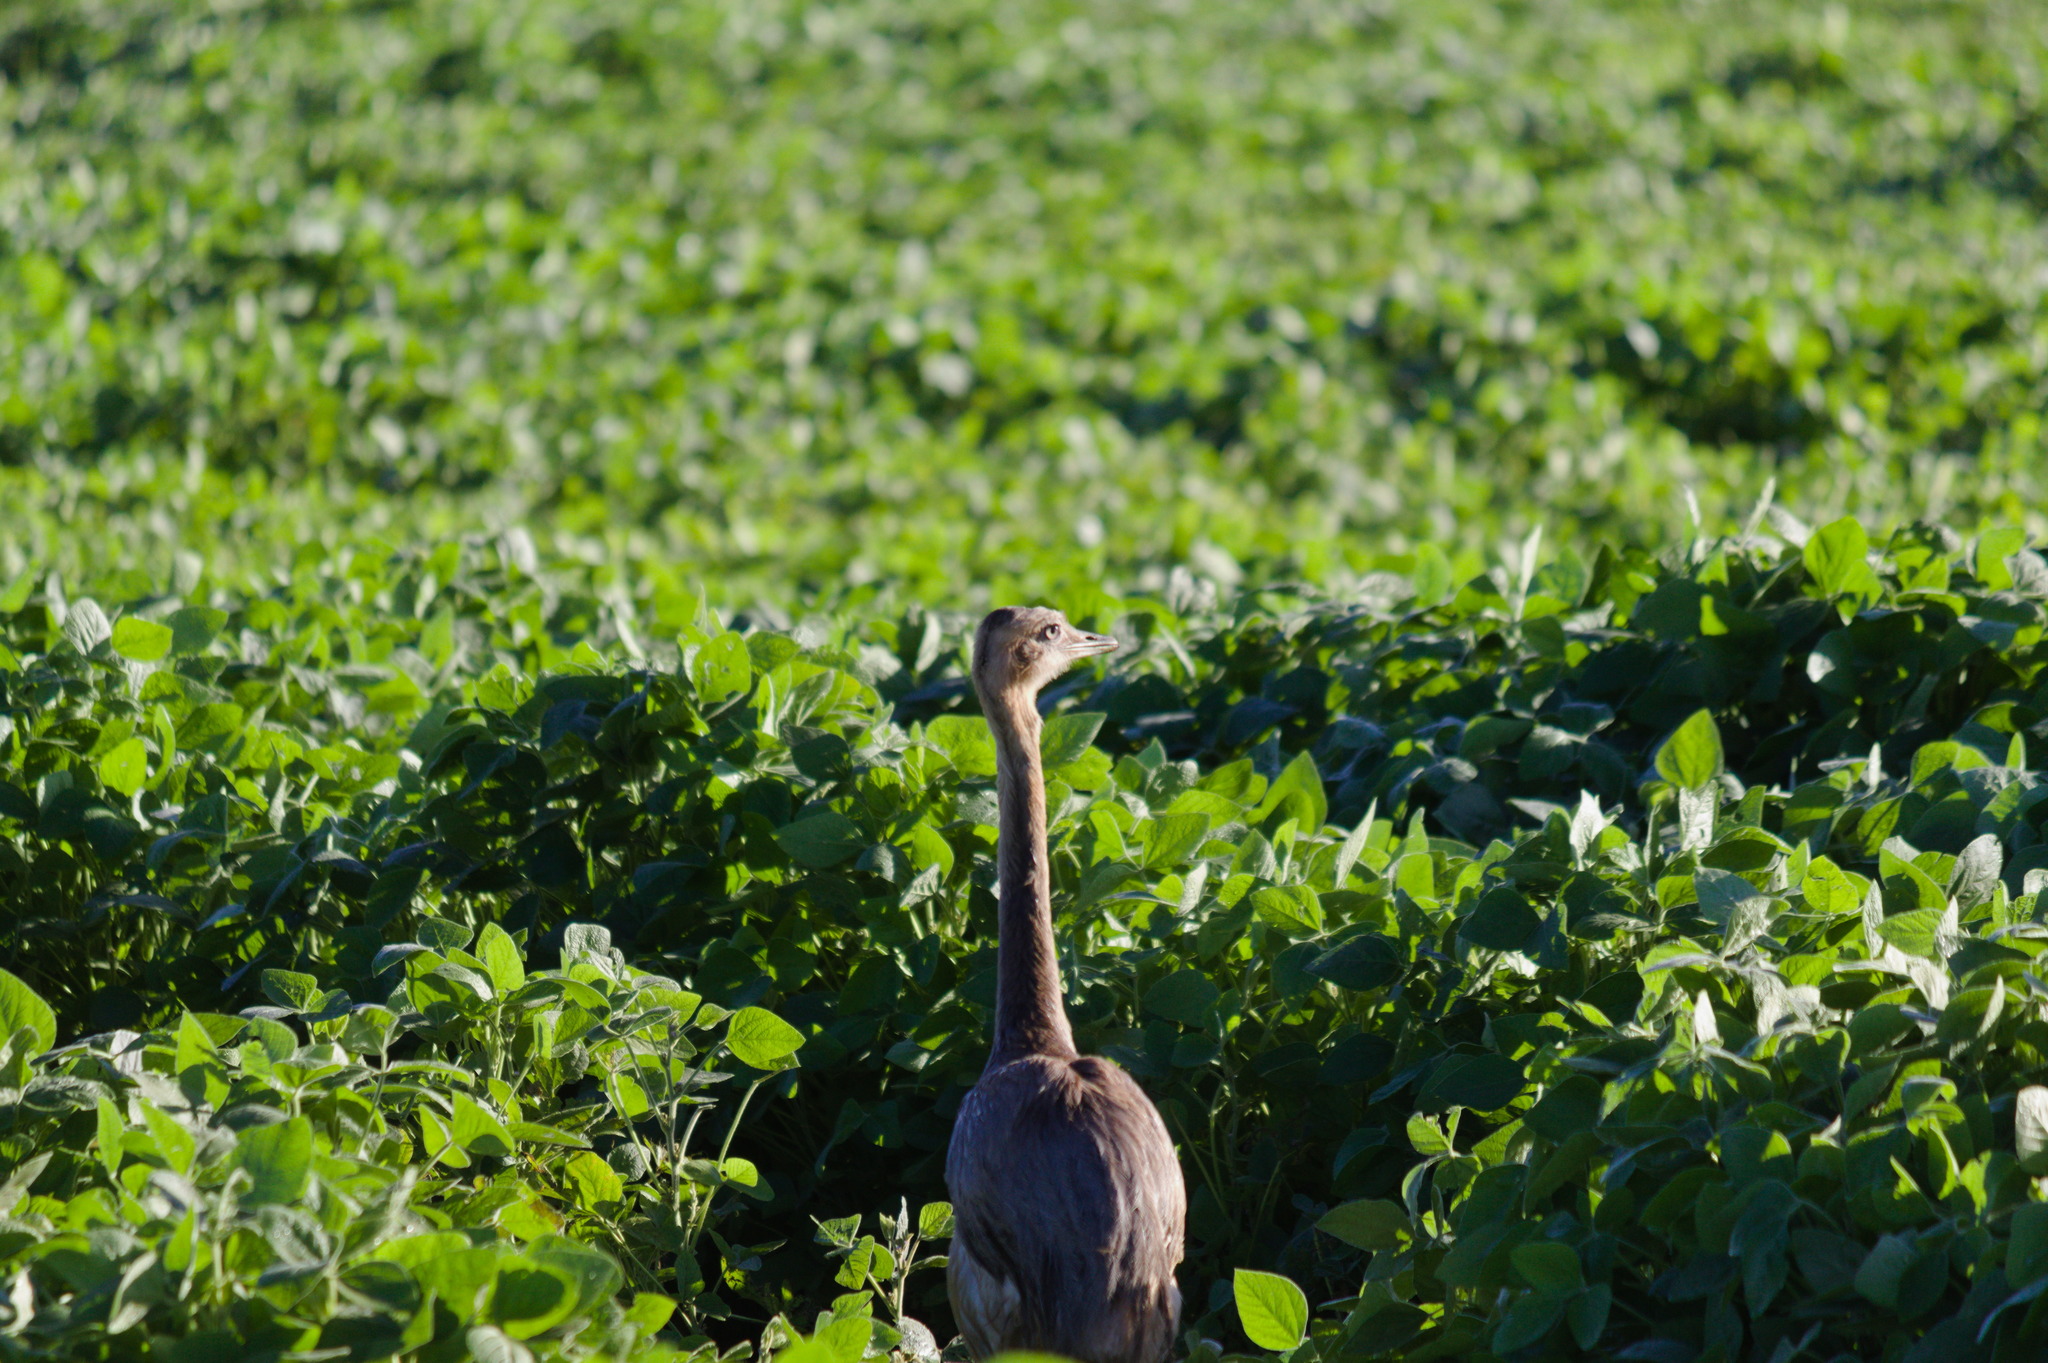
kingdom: Animalia
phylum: Chordata
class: Aves
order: Rheiformes
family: Rheidae
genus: Rhea
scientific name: Rhea americana
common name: Greater rhea
